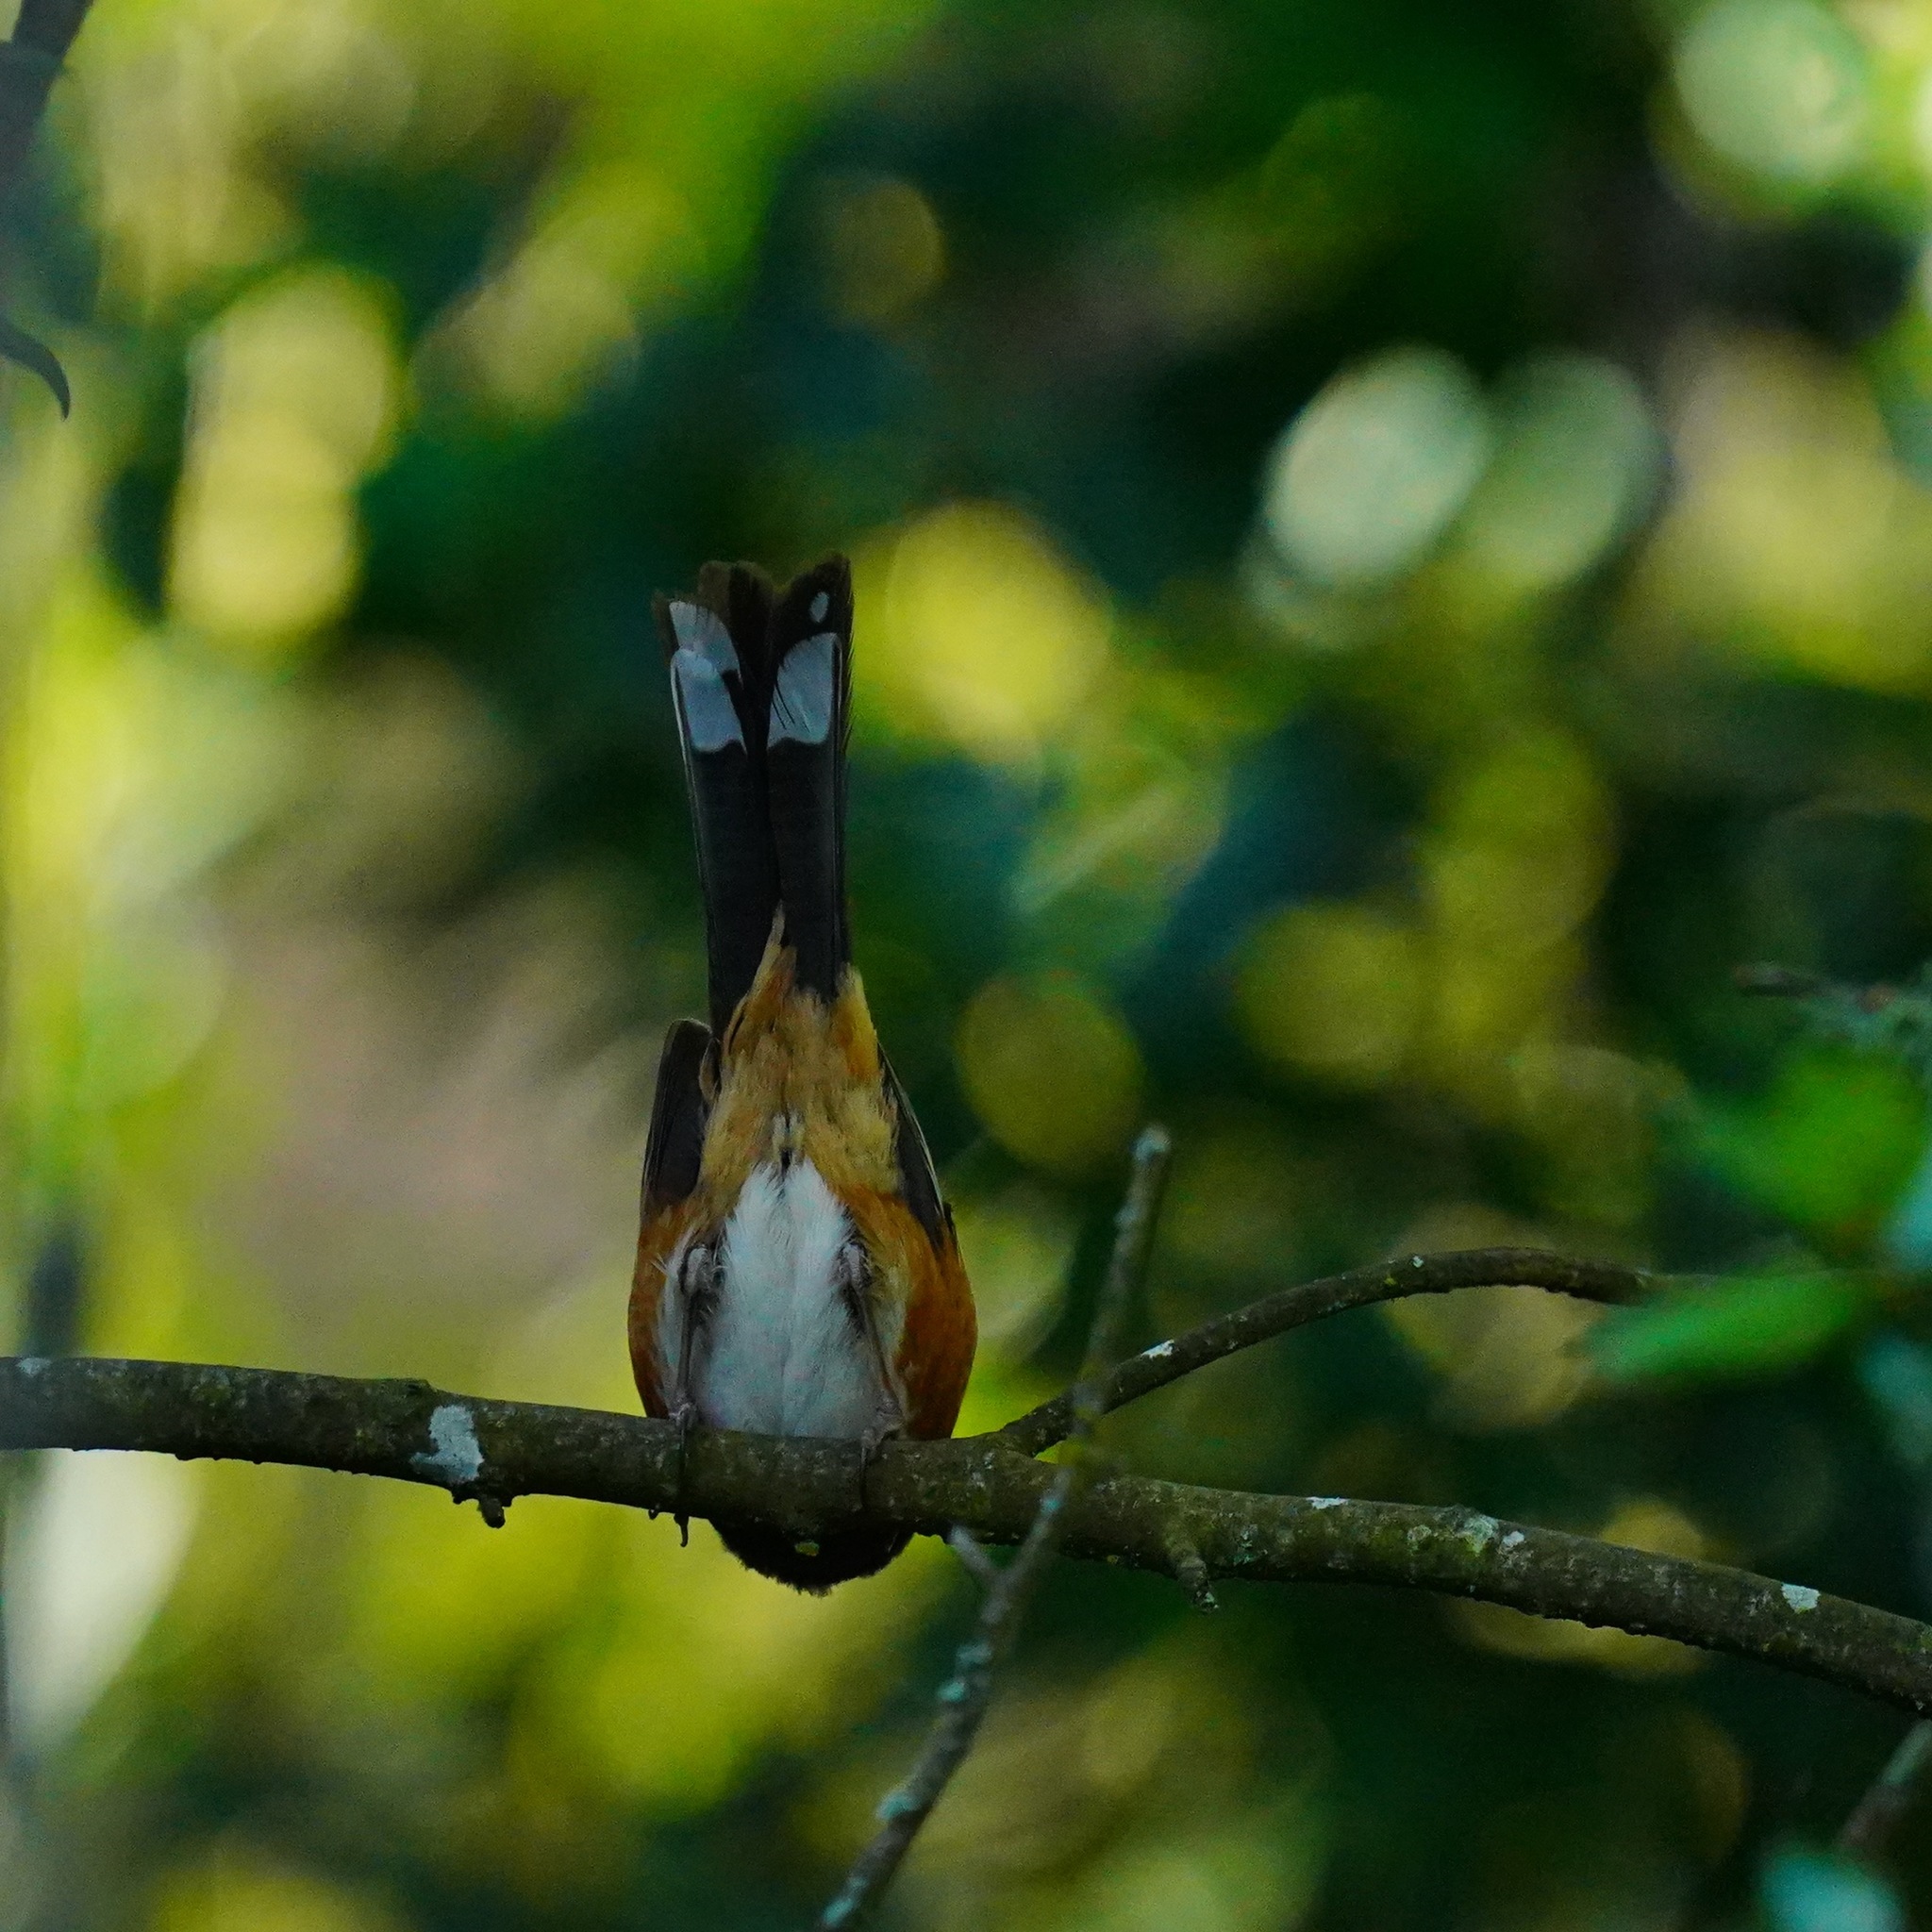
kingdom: Animalia
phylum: Chordata
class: Aves
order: Passeriformes
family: Passerellidae
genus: Pipilo
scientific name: Pipilo maculatus
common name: Spotted towhee
